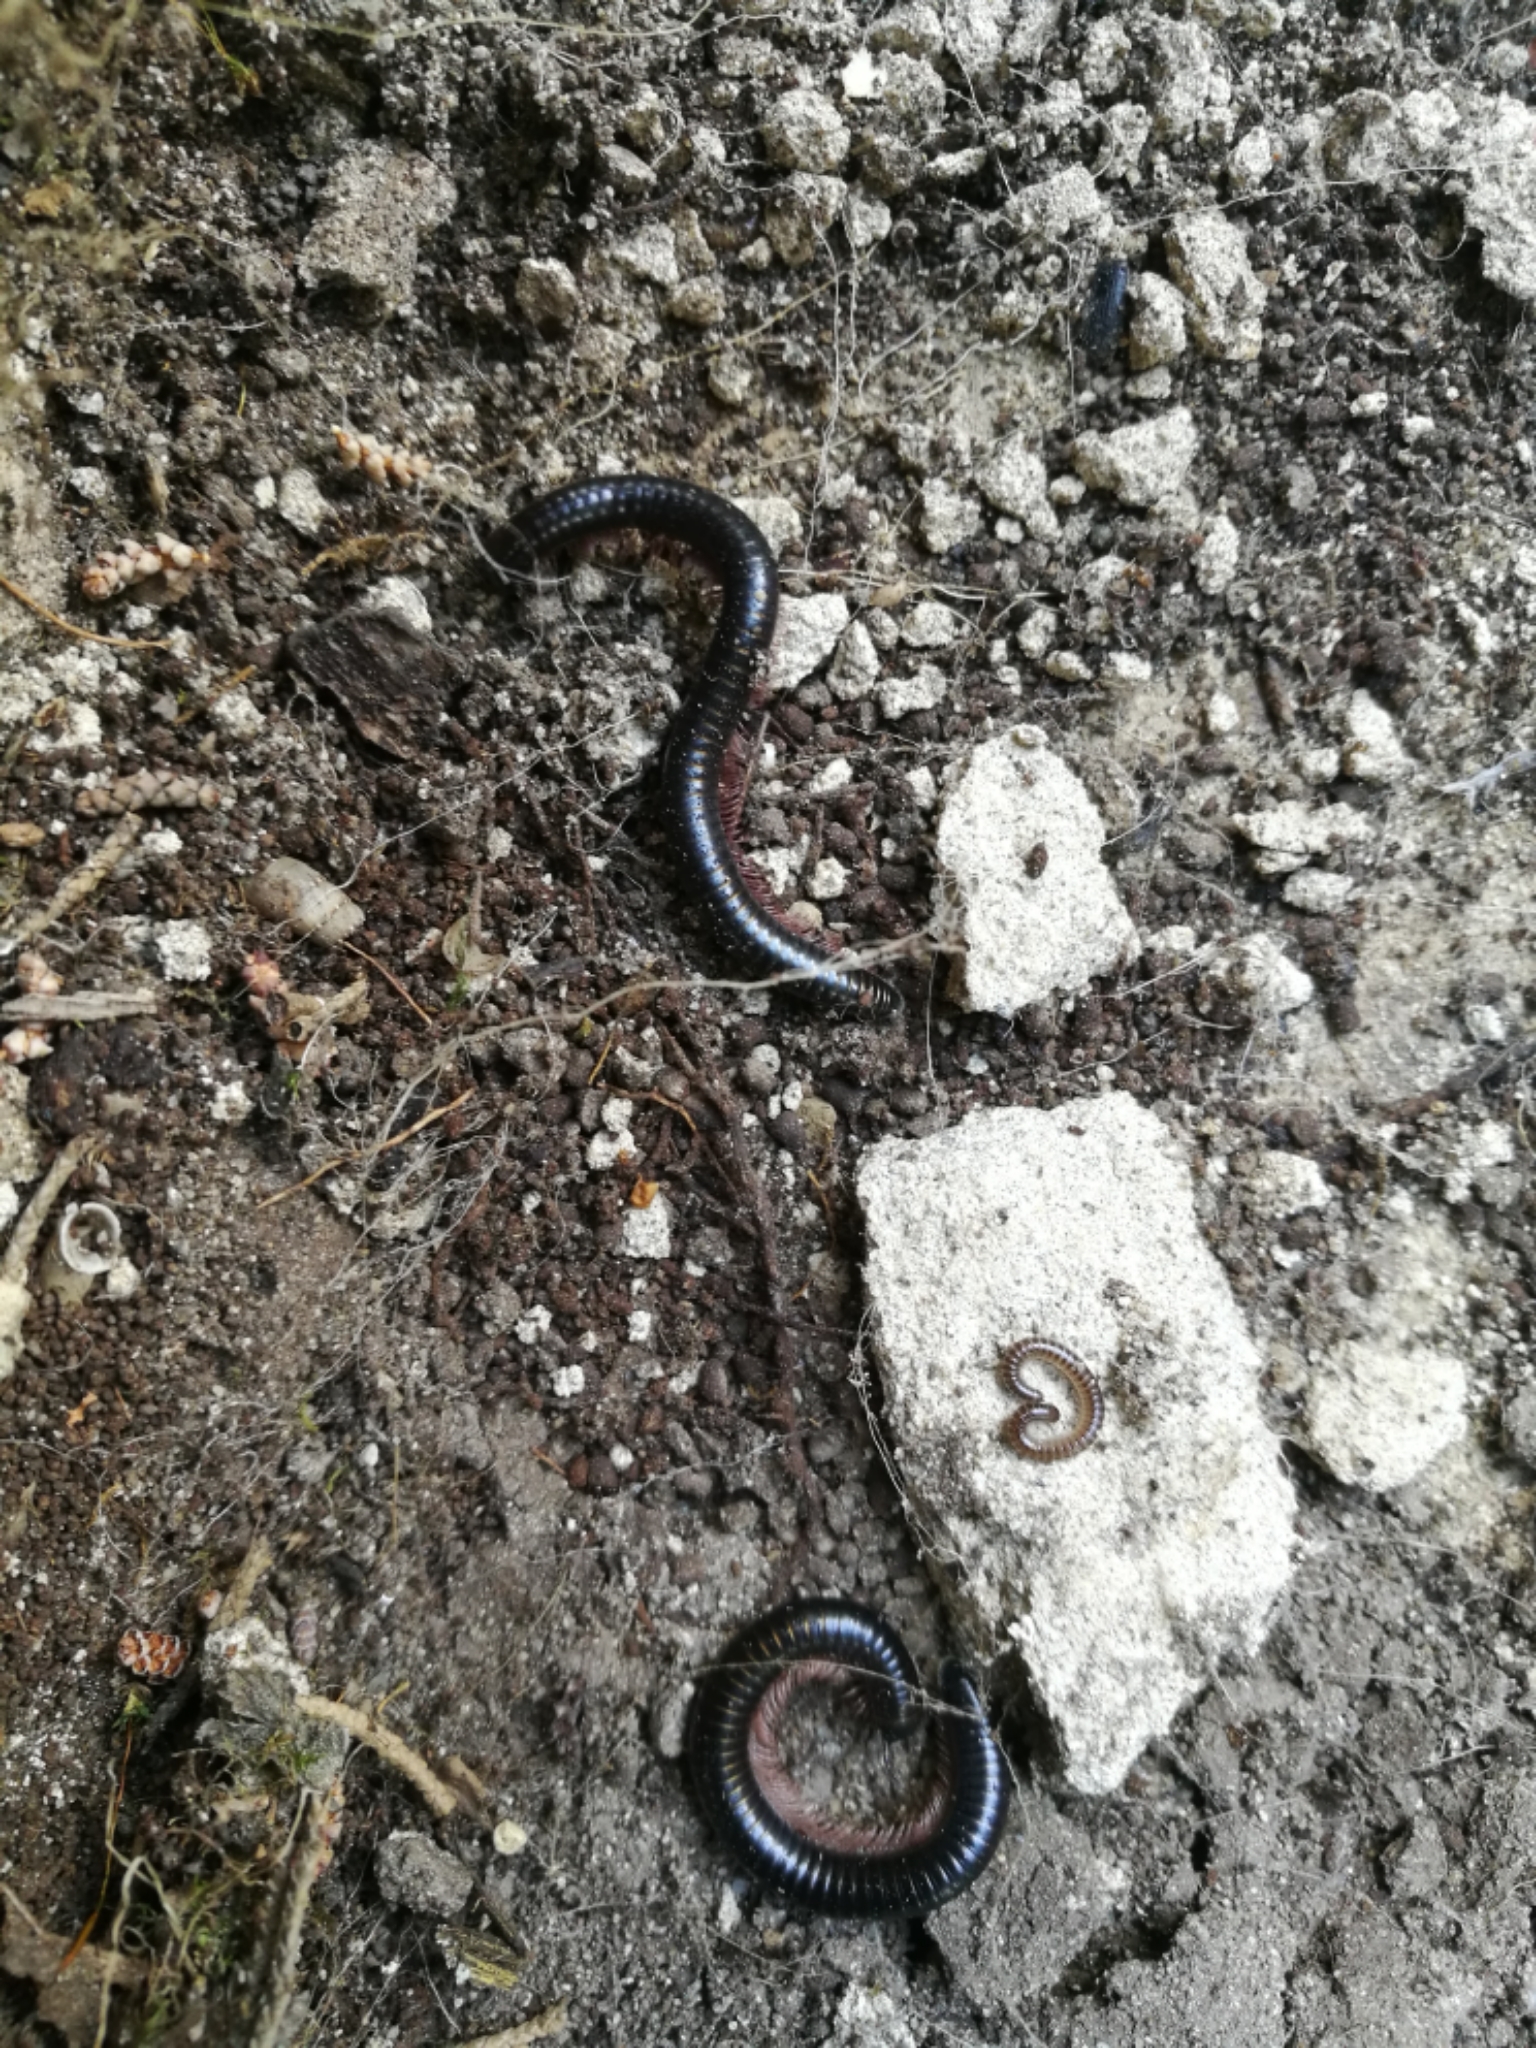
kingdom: Animalia
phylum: Arthropoda
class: Diplopoda
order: Julida
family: Julidae
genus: Pachyiulus
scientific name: Pachyiulus oenologus
